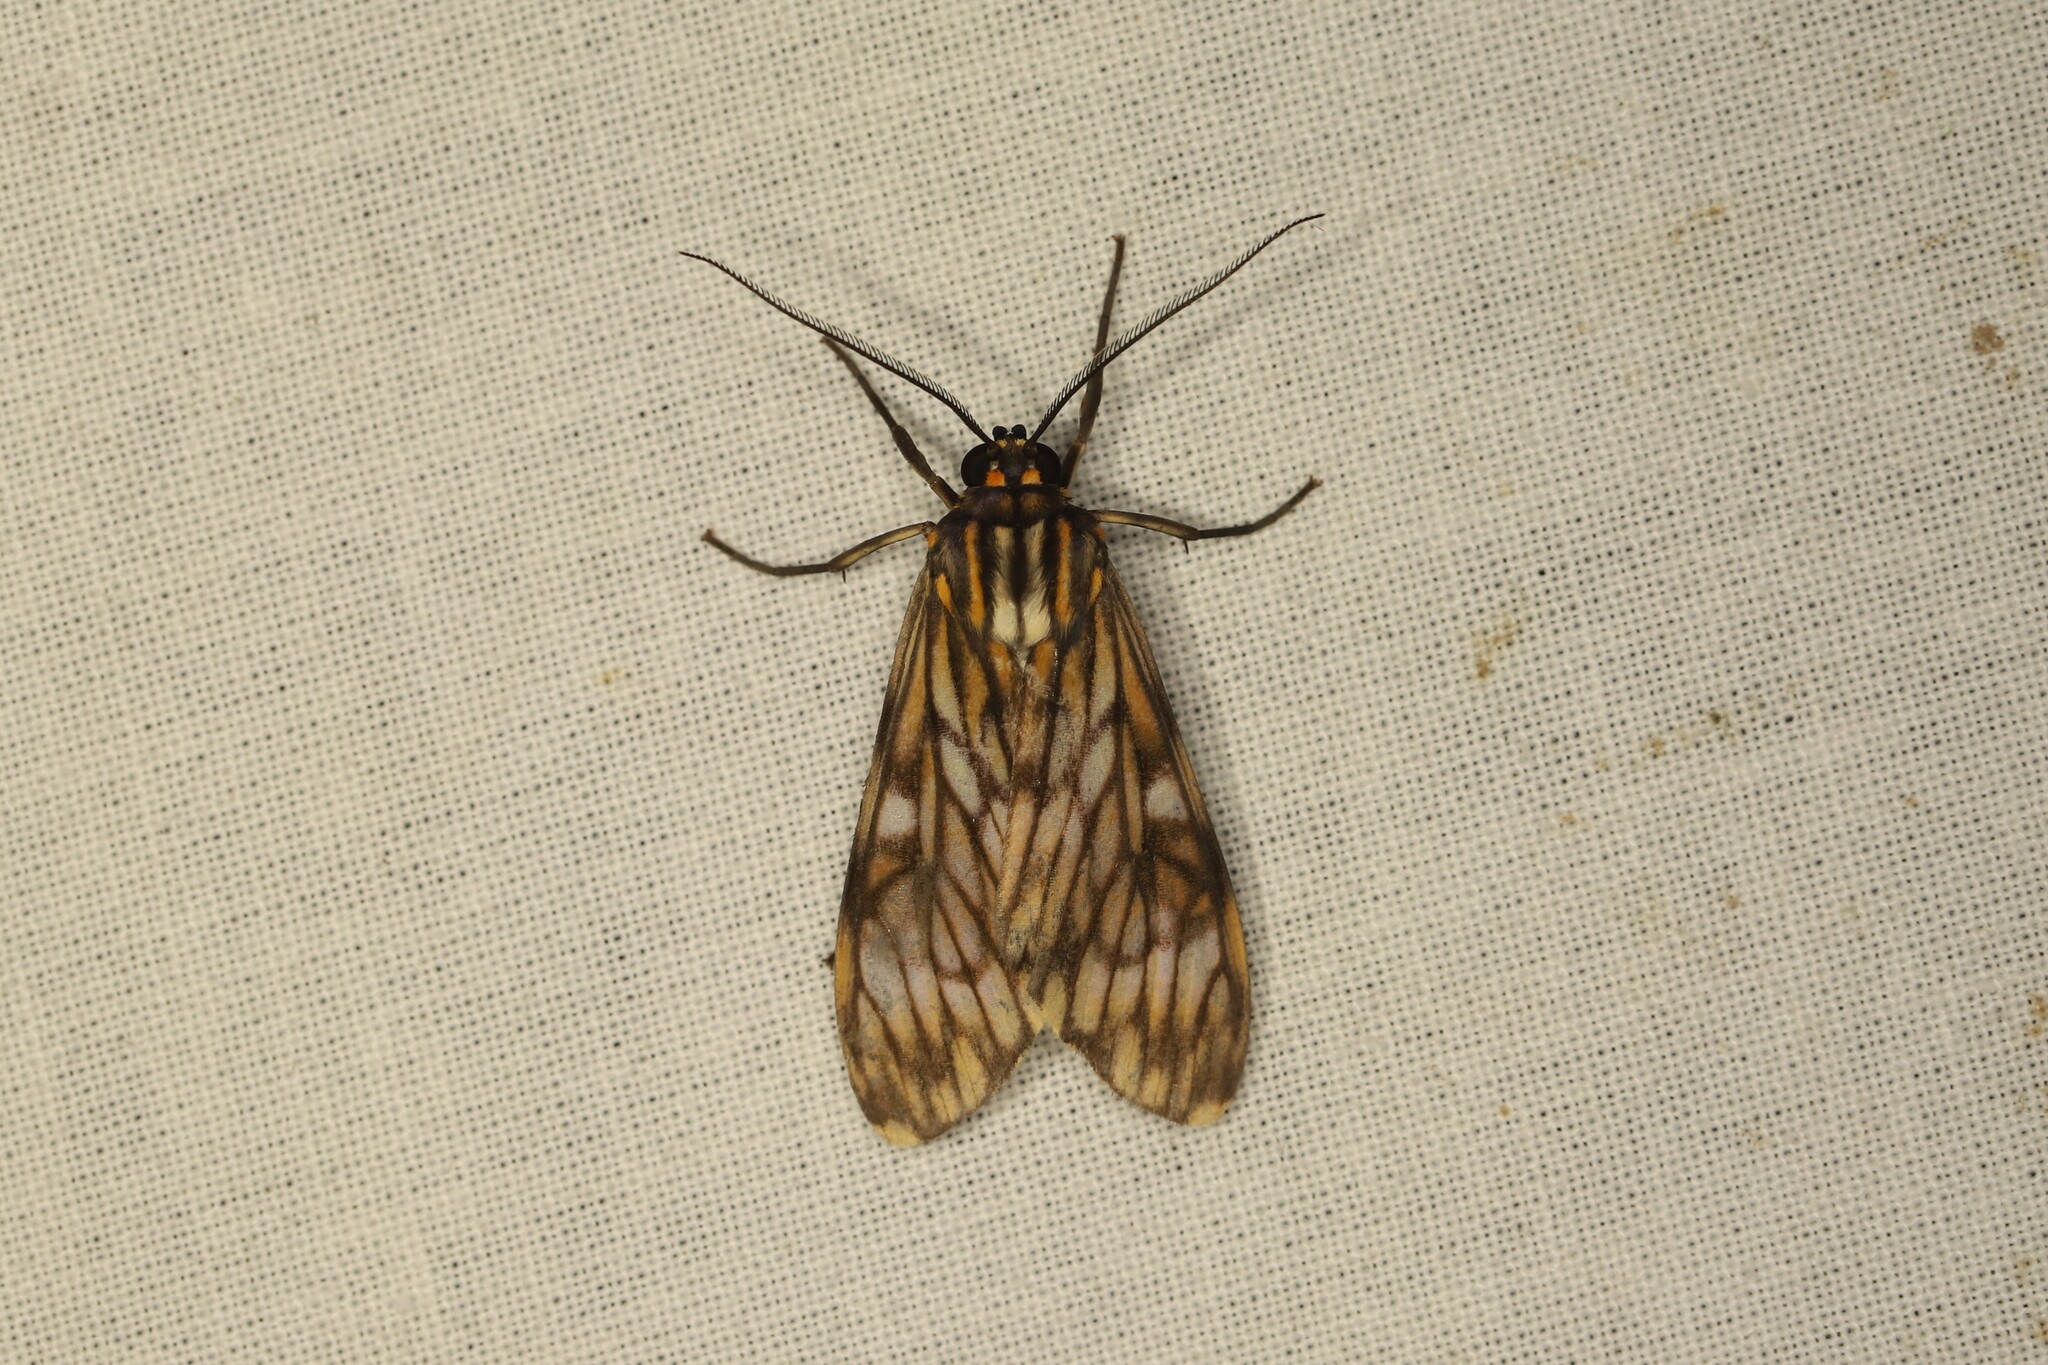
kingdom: Animalia
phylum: Arthropoda
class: Insecta
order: Lepidoptera
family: Erebidae
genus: Theages
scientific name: Theages flavicaput
